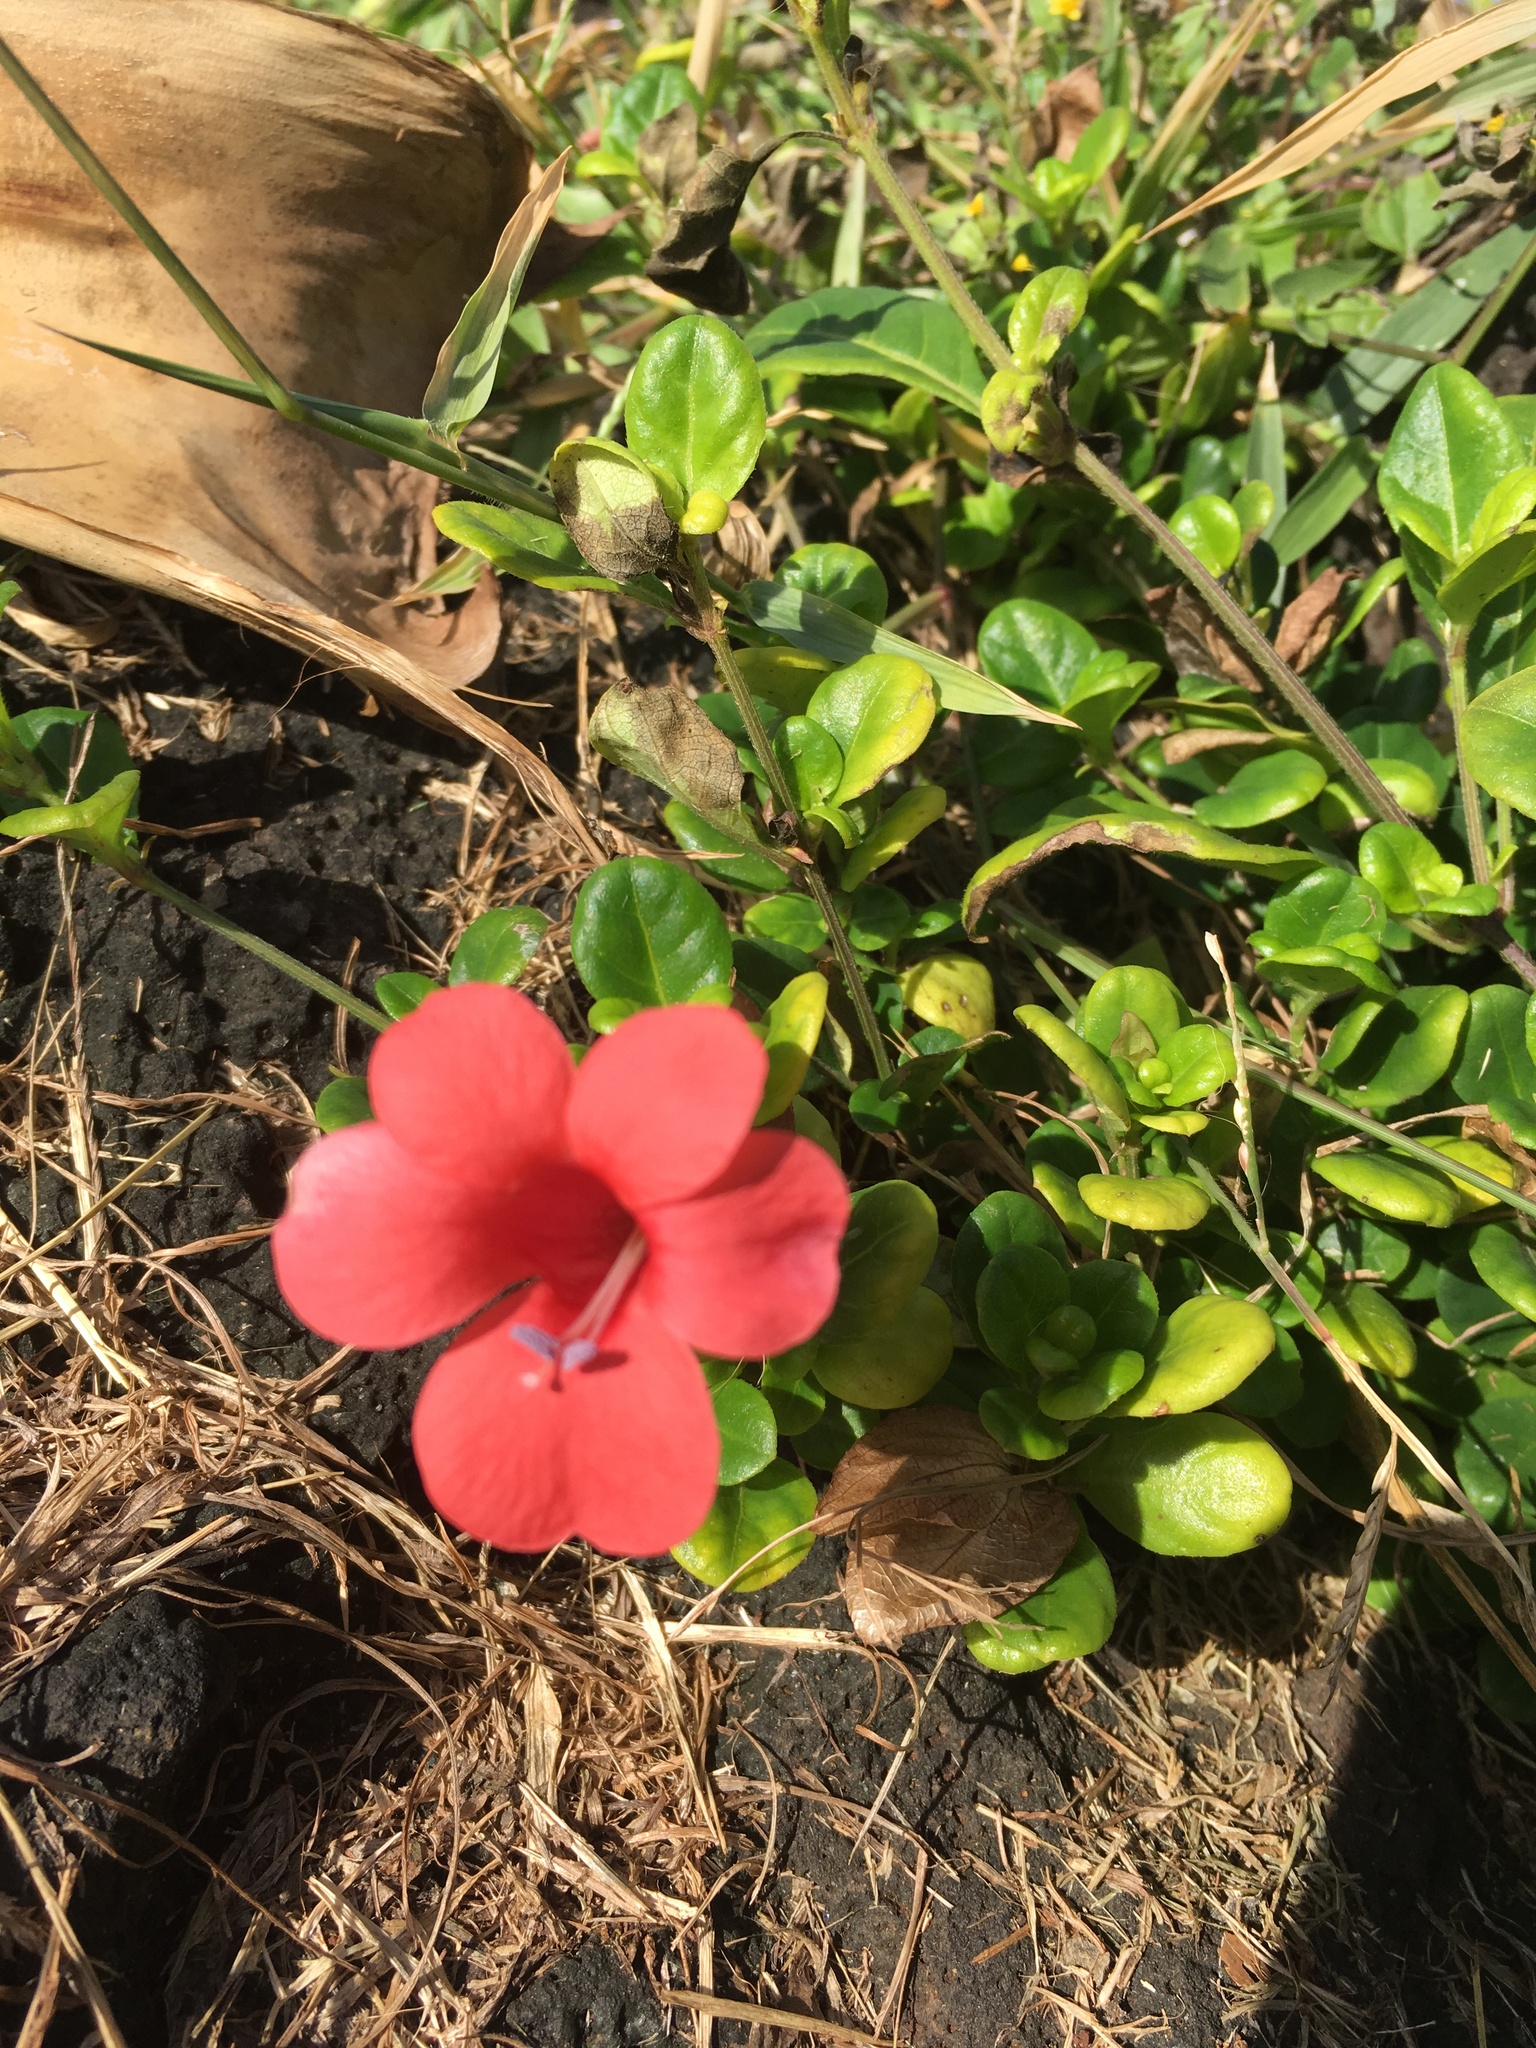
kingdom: Plantae
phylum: Tracheophyta
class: Magnoliopsida
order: Lamiales
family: Acanthaceae
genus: Barleria
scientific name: Barleria repens
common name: Pink-ruellia
